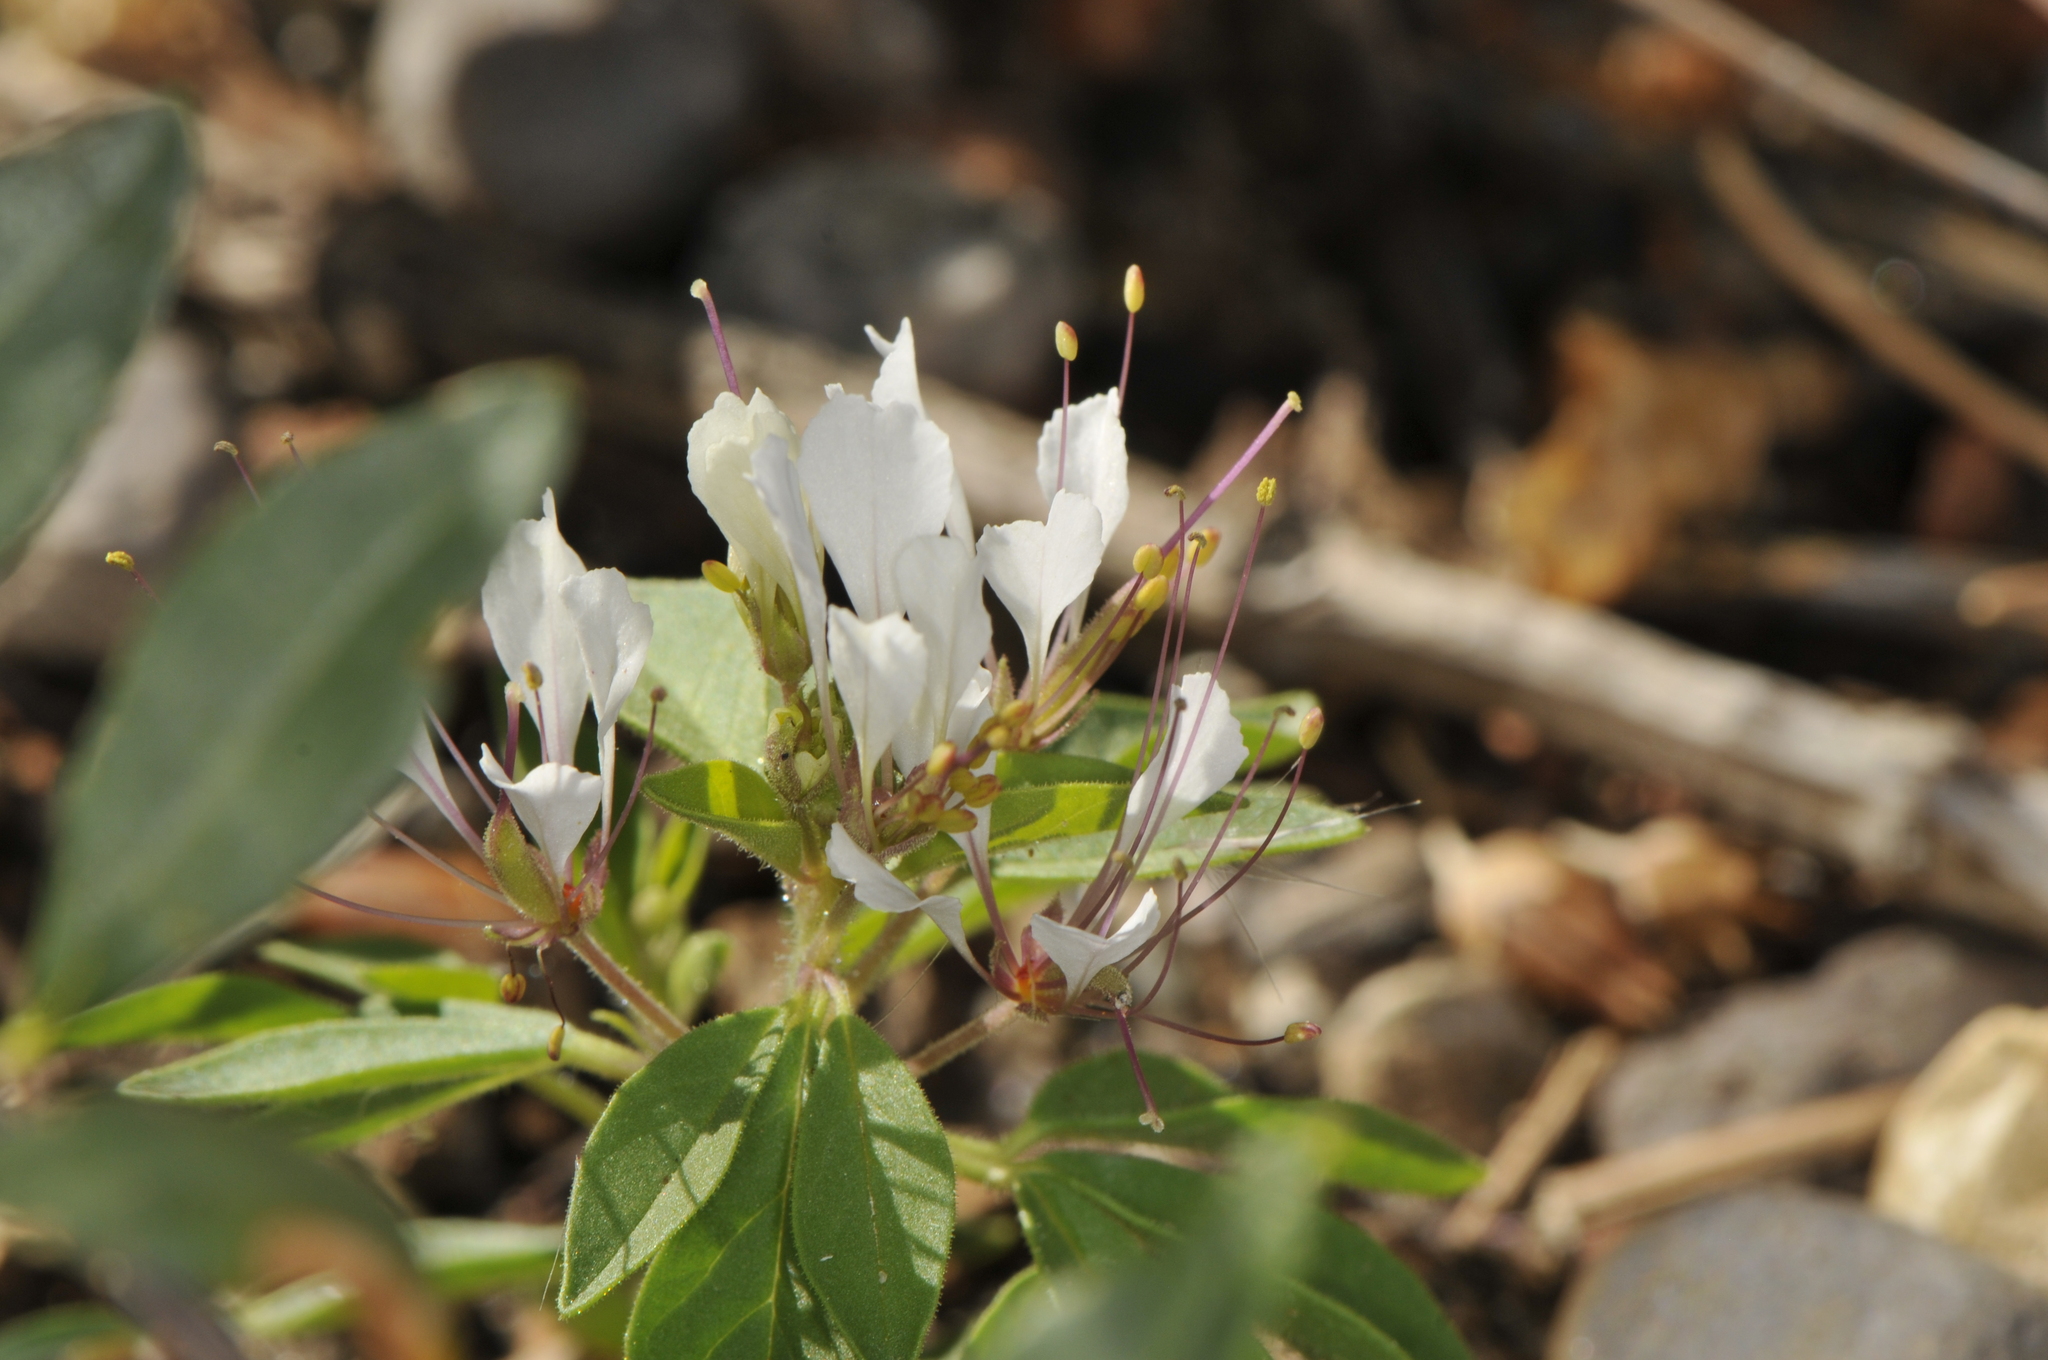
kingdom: Plantae
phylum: Tracheophyta
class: Magnoliopsida
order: Brassicales
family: Cleomaceae
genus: Polanisia
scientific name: Polanisia trachysperma
